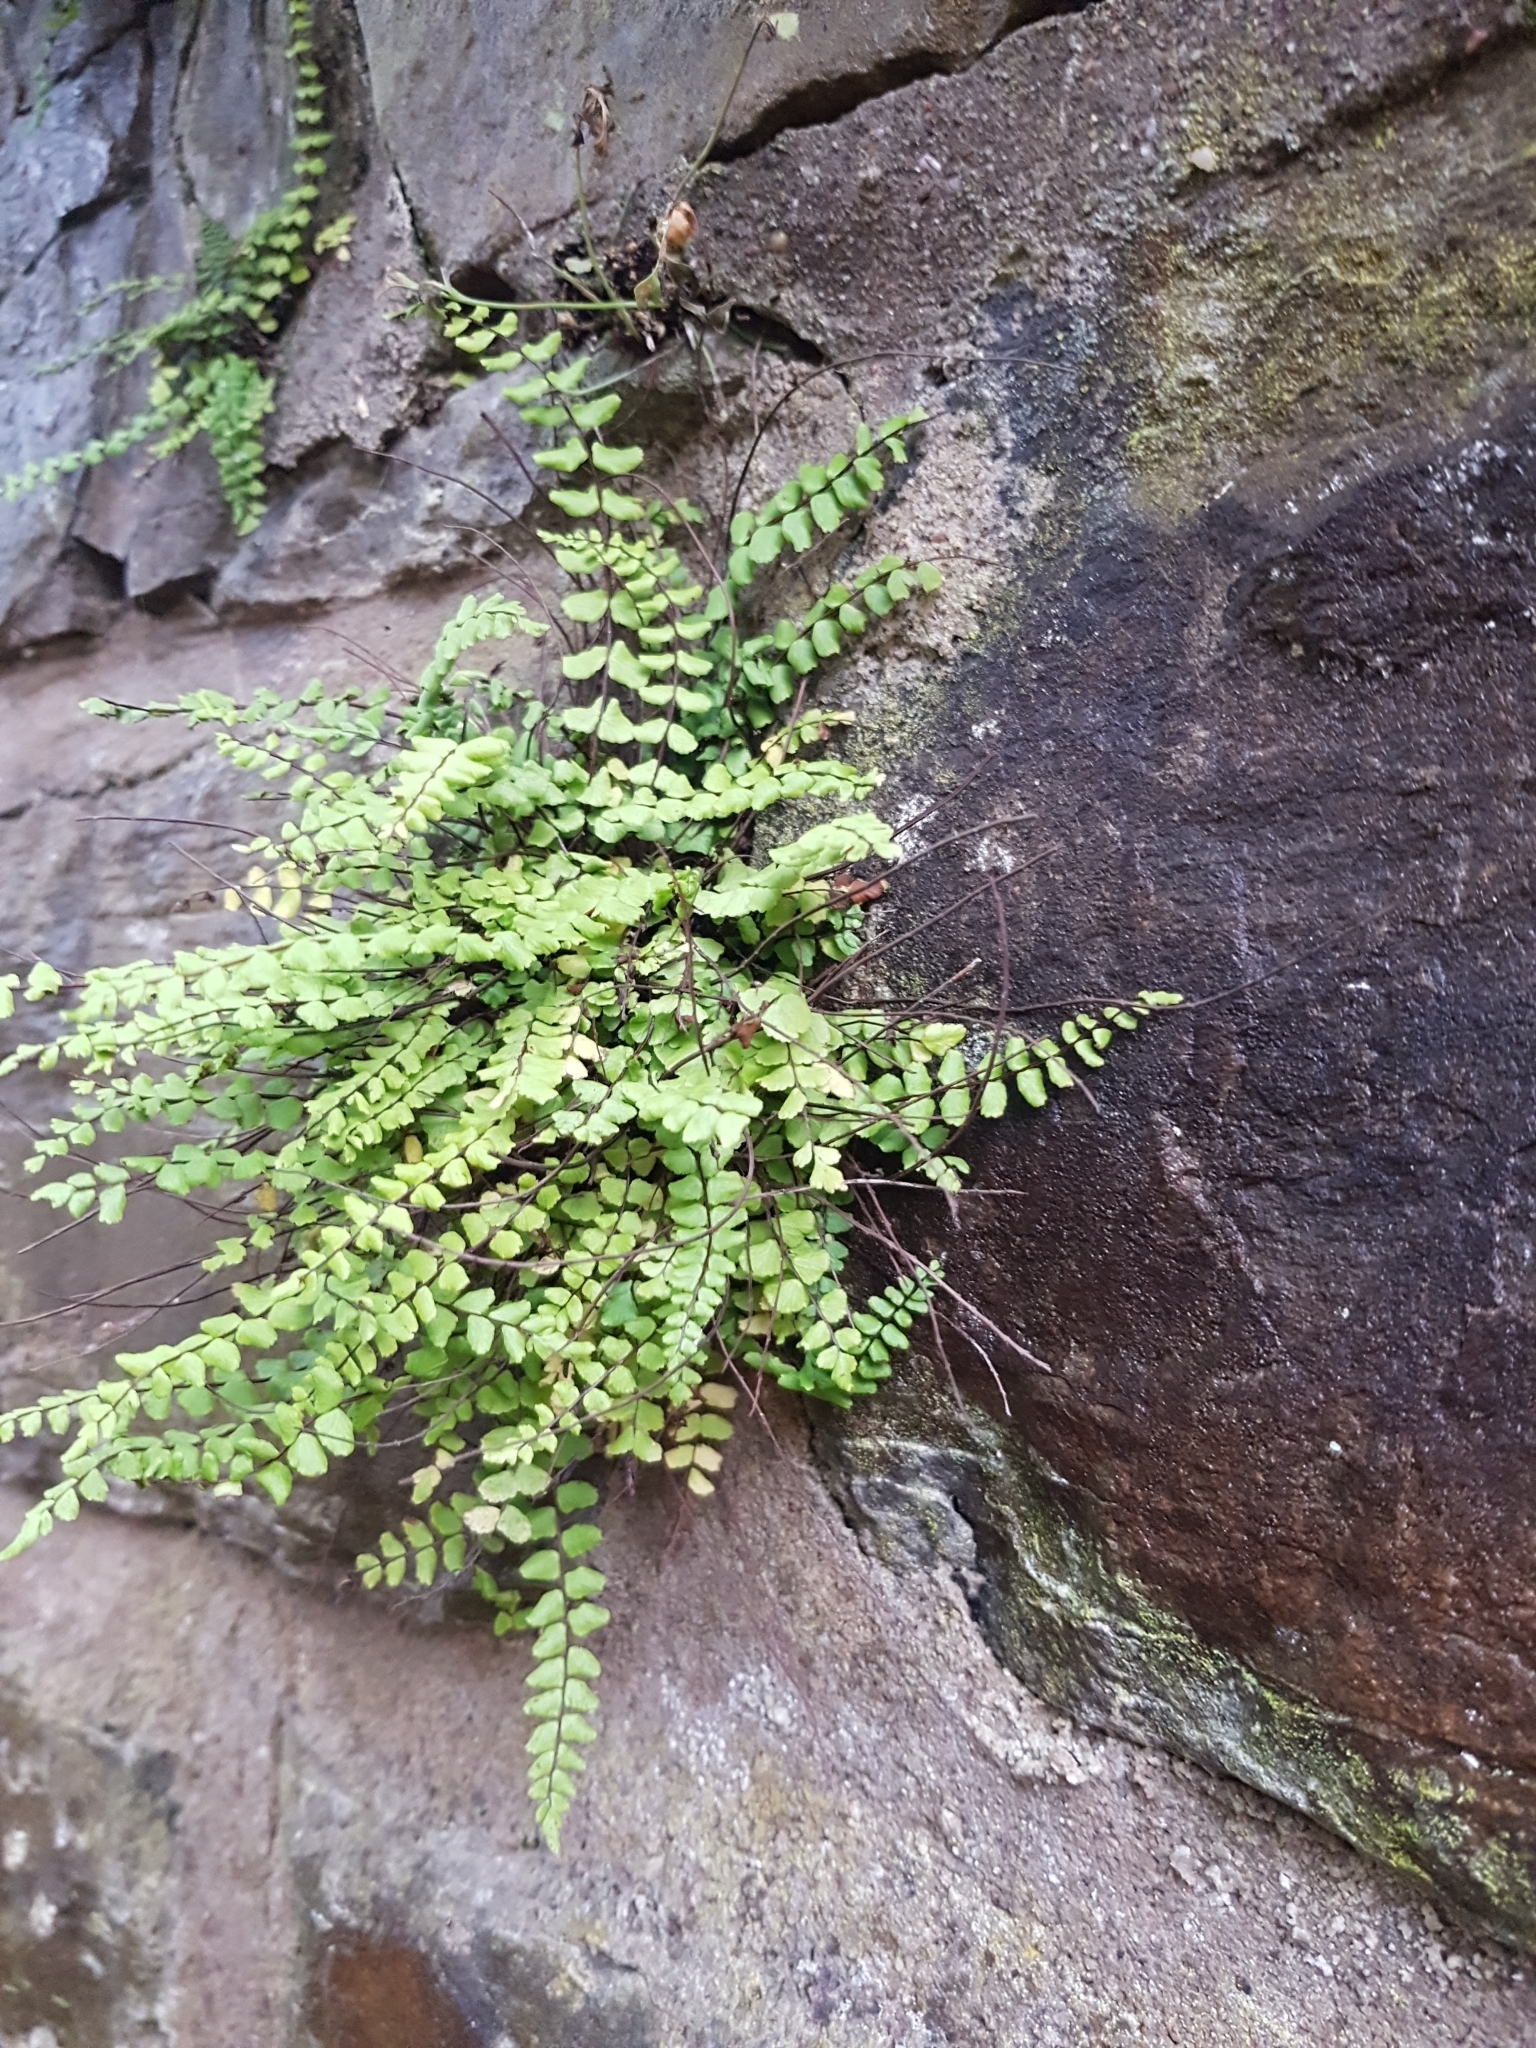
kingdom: Plantae
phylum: Tracheophyta
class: Polypodiopsida
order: Polypodiales
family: Aspleniaceae
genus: Asplenium
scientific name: Asplenium trichomanes
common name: Maidenhair spleenwort
